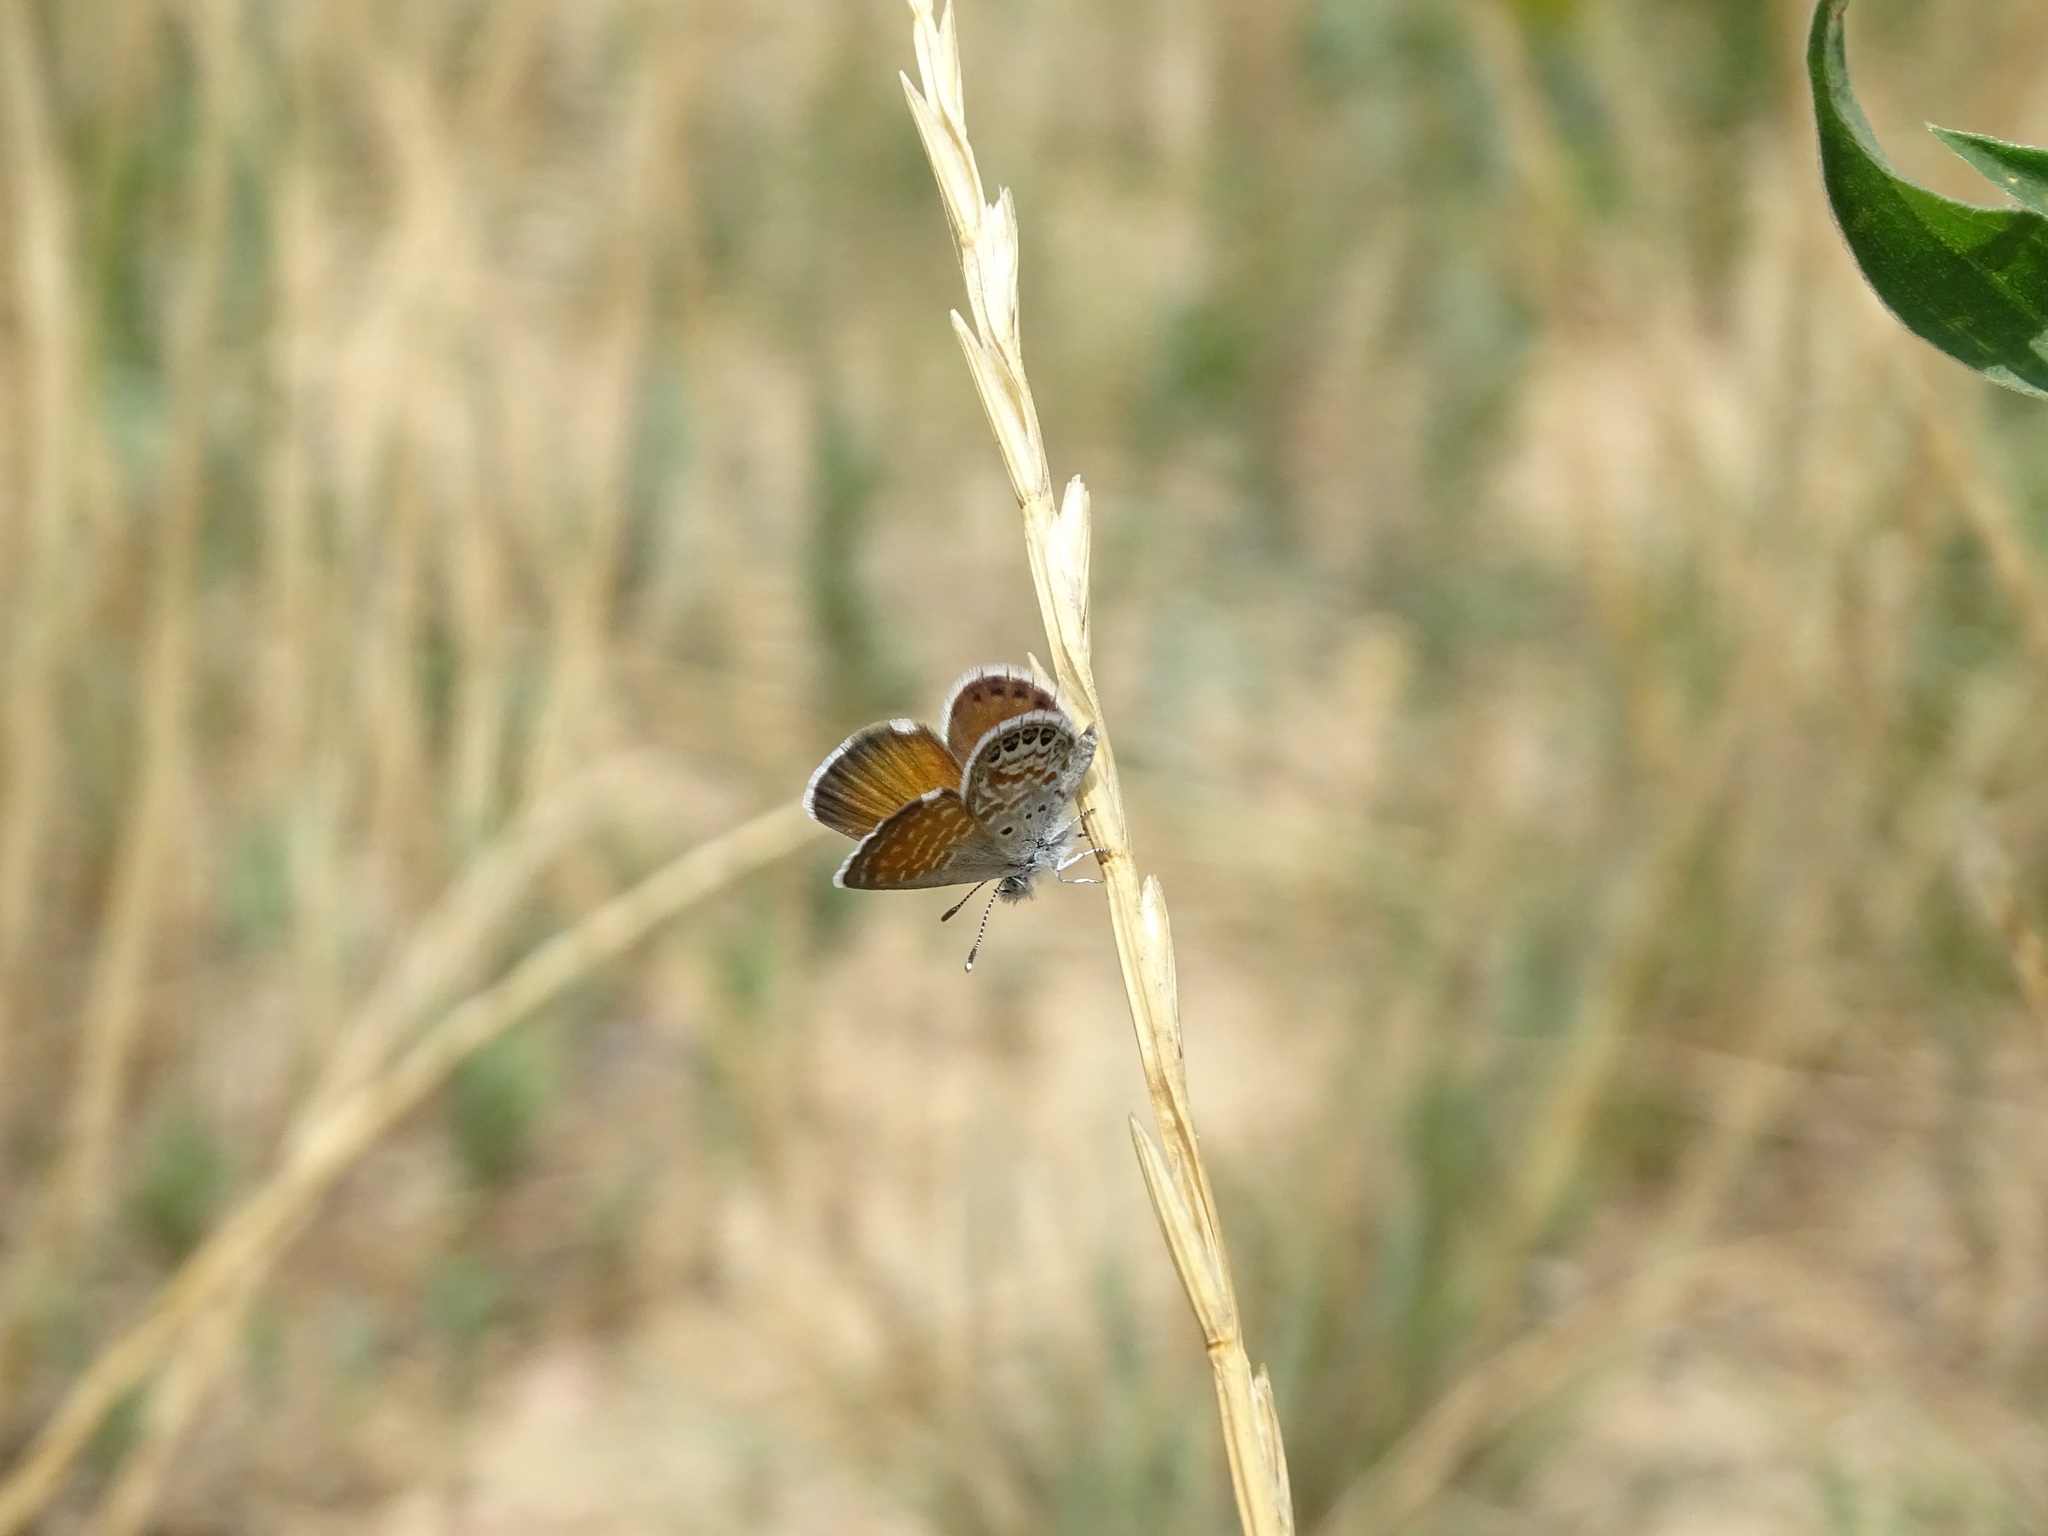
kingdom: Animalia
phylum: Arthropoda
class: Insecta
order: Lepidoptera
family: Lycaenidae
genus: Brephidium
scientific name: Brephidium exilis
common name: Pygmy blue
